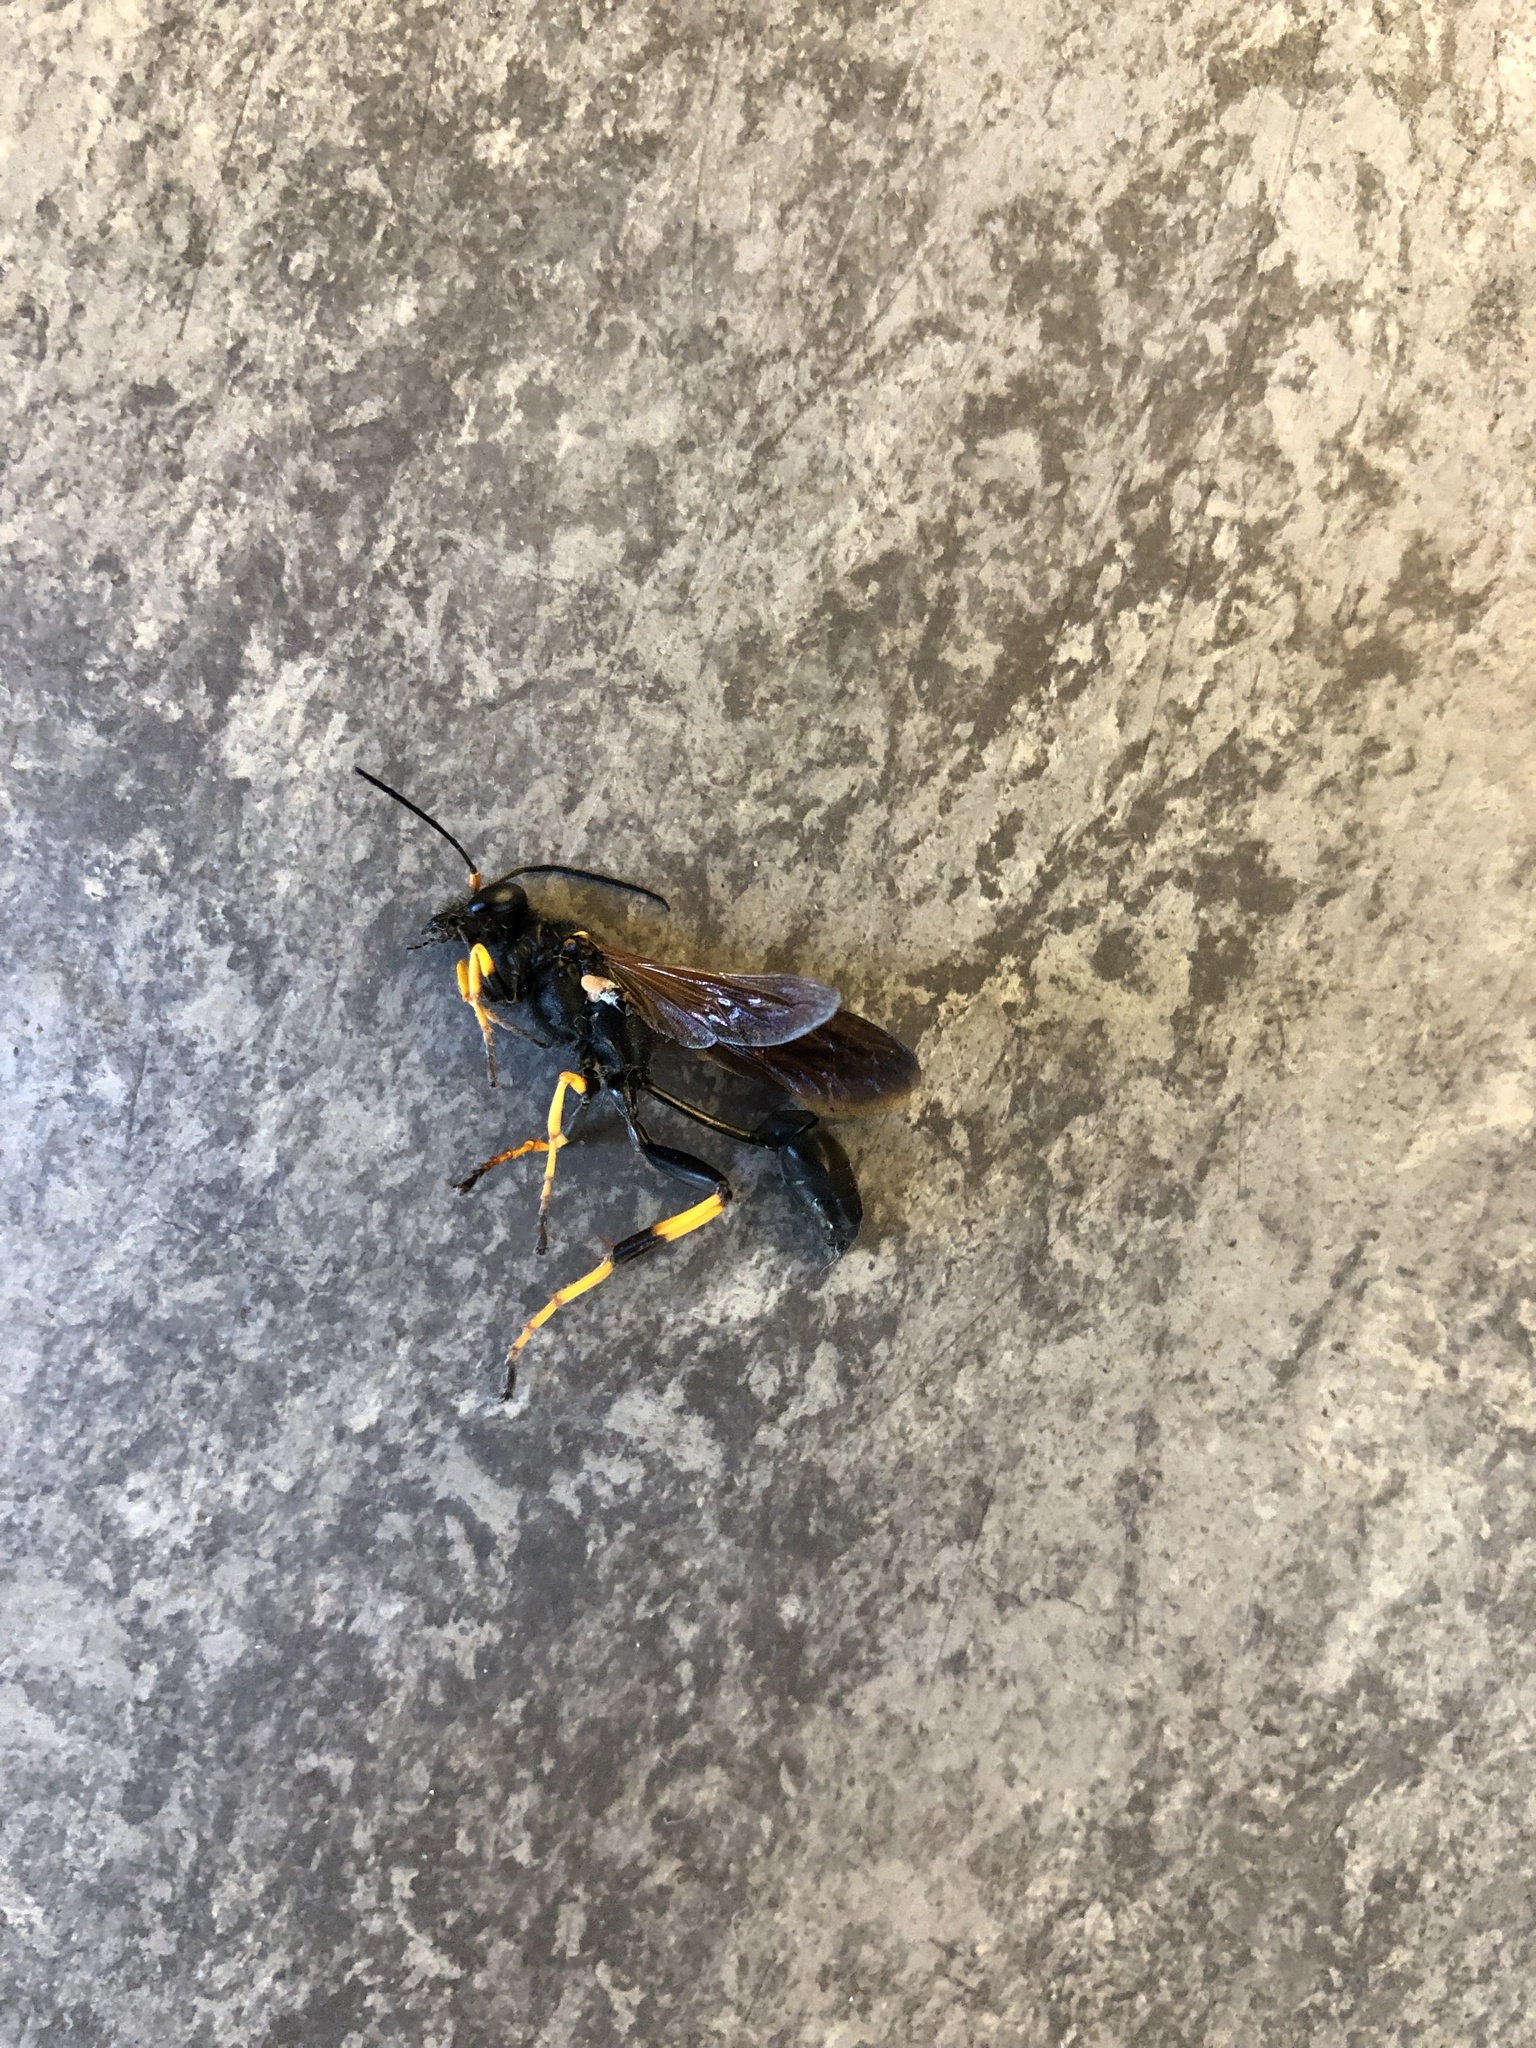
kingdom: Animalia
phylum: Arthropoda
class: Insecta
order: Hymenoptera
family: Sphecidae
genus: Sceliphron
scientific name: Sceliphron caementarium
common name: Mud dauber
